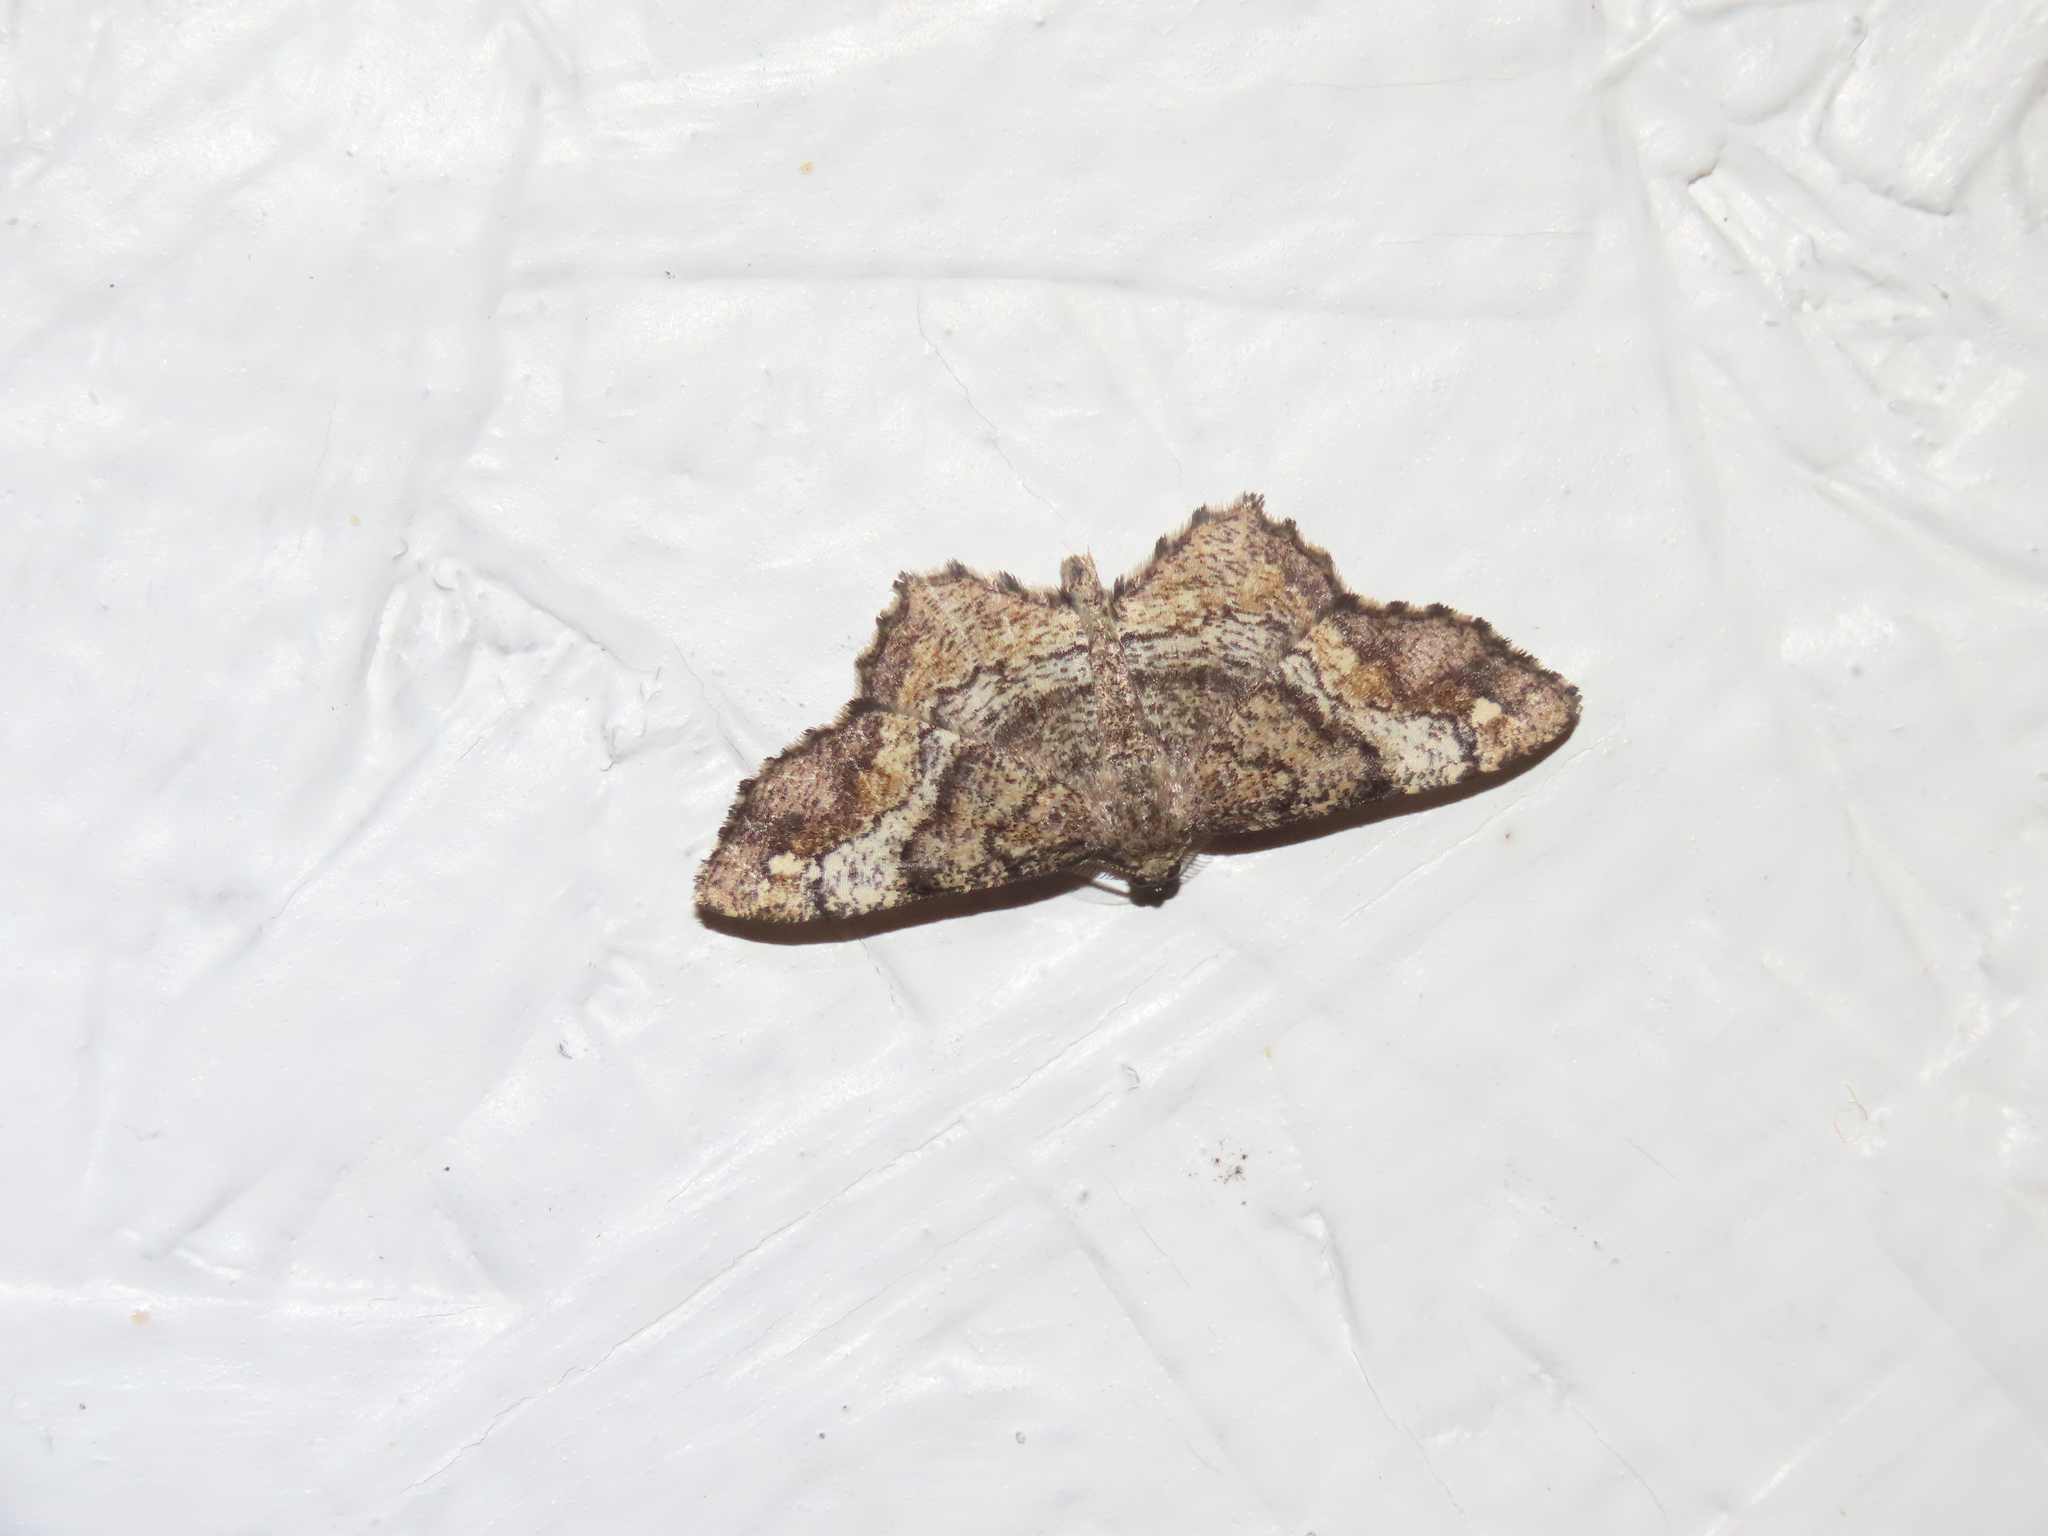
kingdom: Animalia
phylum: Arthropoda
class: Insecta
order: Lepidoptera
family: Geometridae
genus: Hypagyrtis
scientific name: Hypagyrtis unipunctata
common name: One-spotted variant
